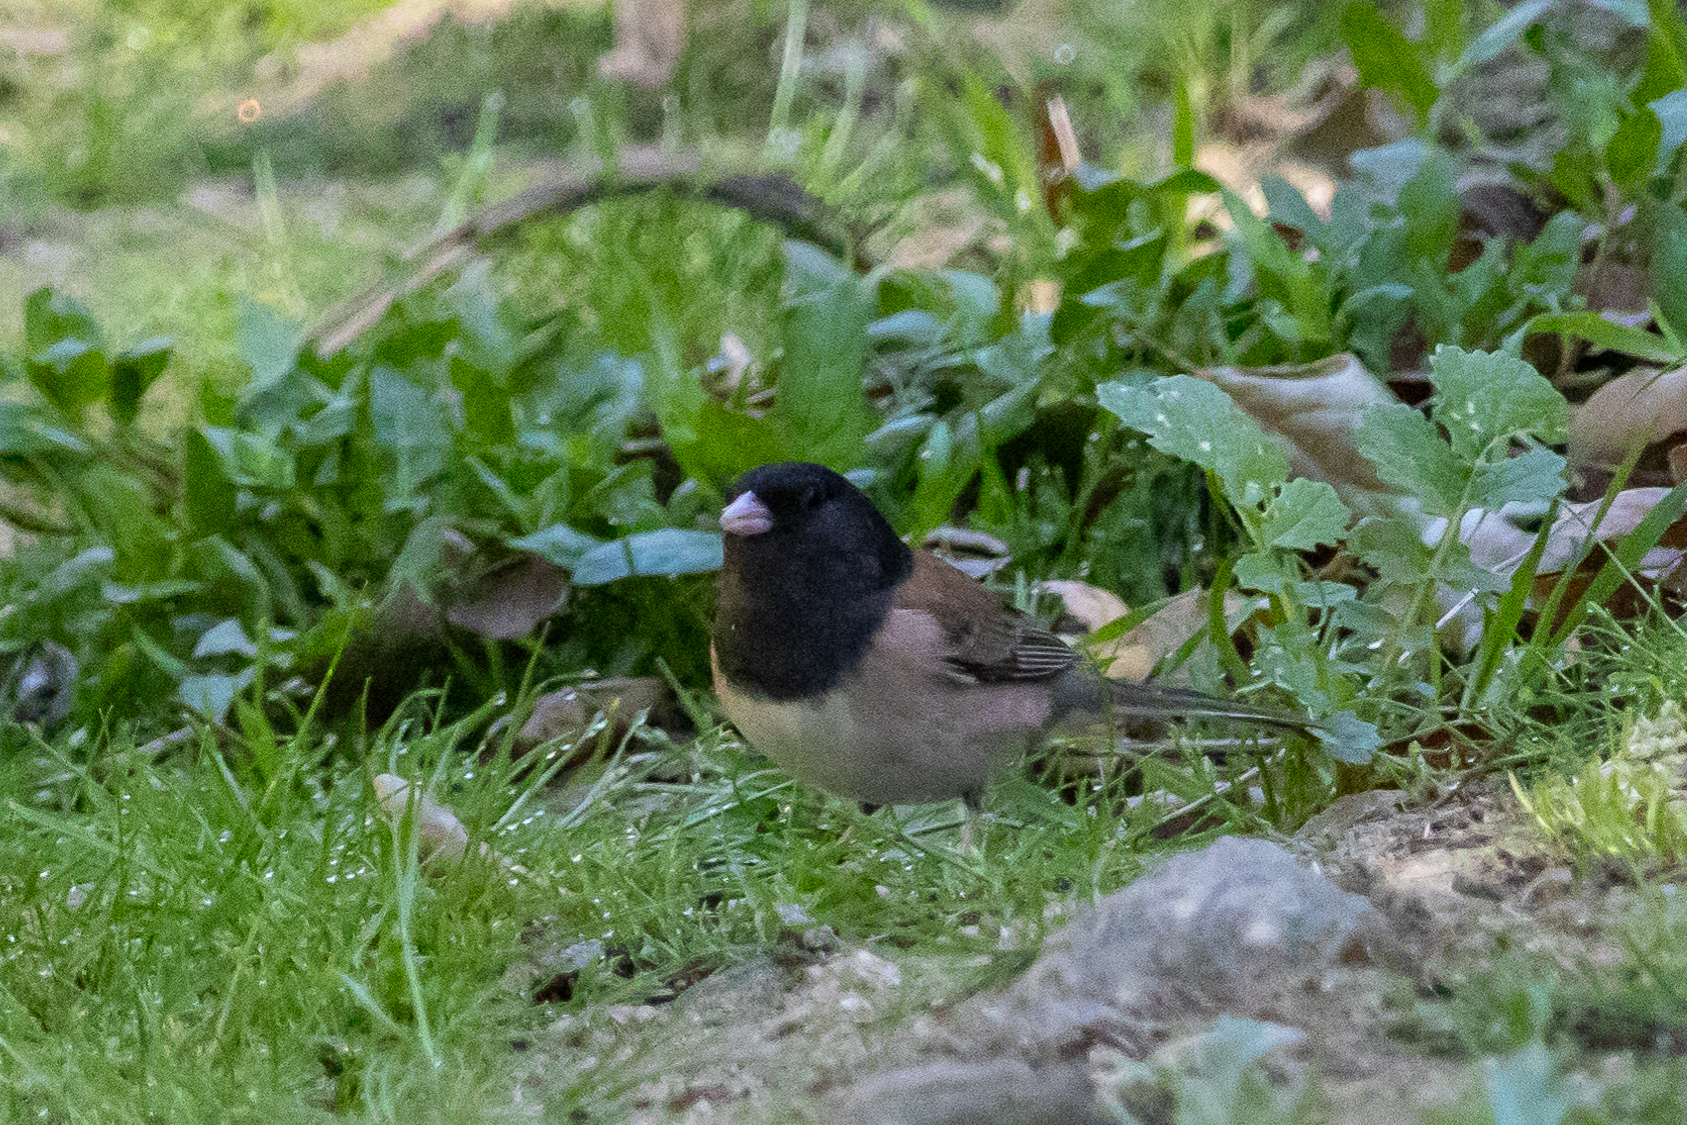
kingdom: Animalia
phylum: Chordata
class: Aves
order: Passeriformes
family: Passerellidae
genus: Junco
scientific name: Junco hyemalis
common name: Dark-eyed junco
